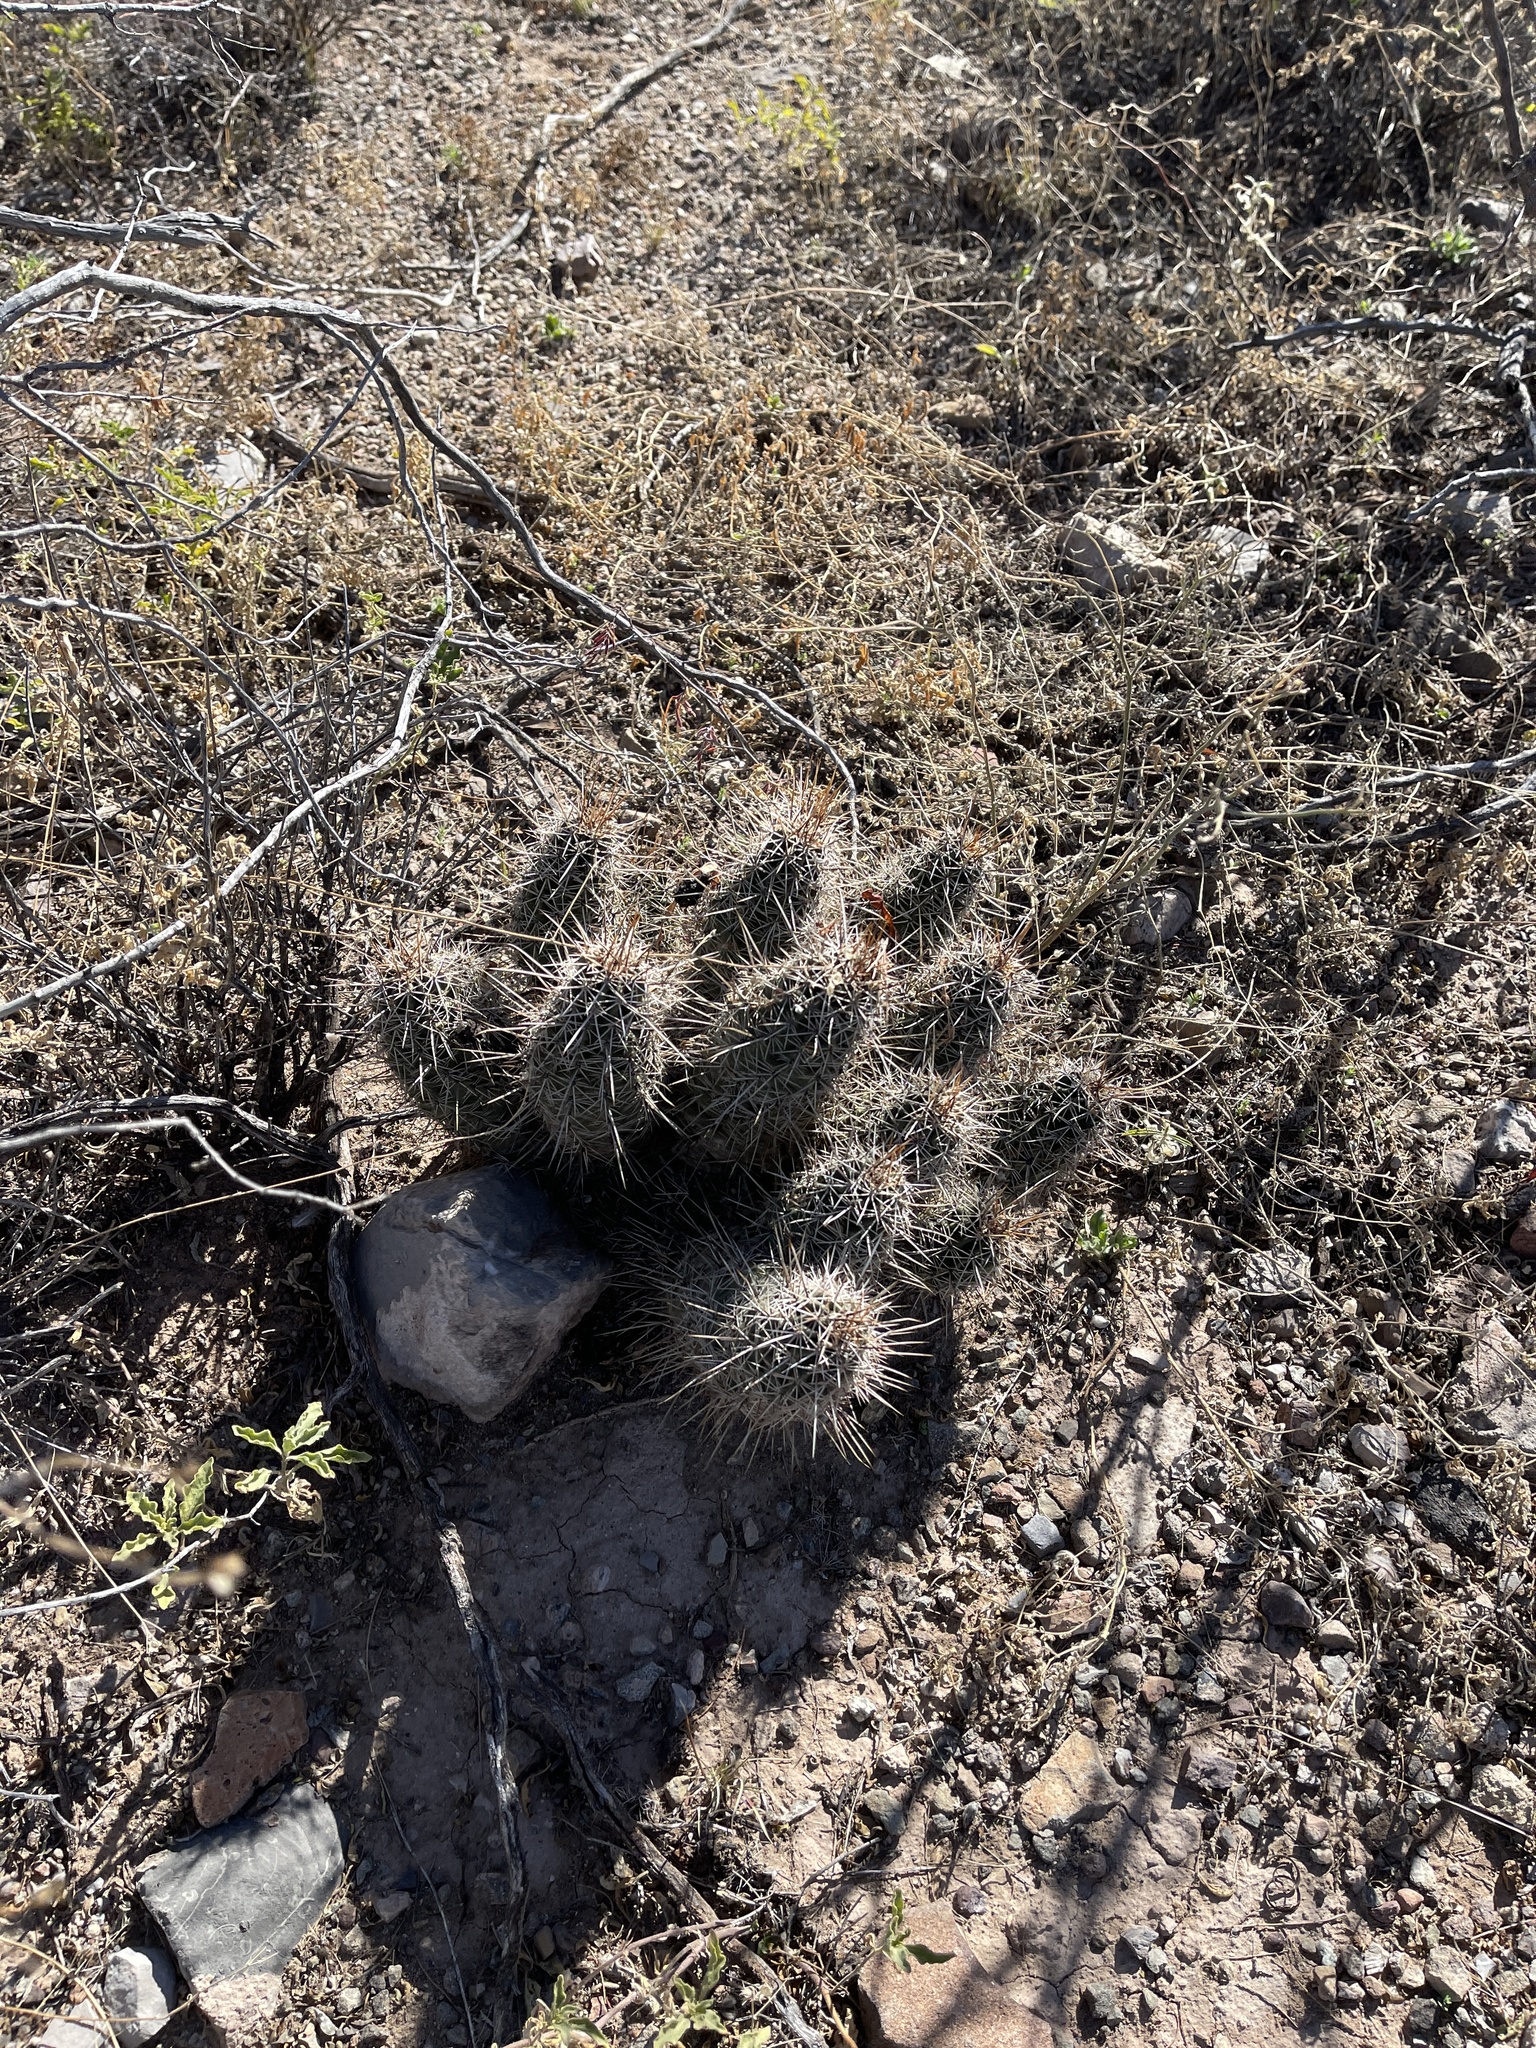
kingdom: Plantae
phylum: Tracheophyta
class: Magnoliopsida
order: Caryophyllales
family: Cactaceae
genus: Echinocereus
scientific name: Echinocereus fasciculatus
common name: Bundle hedgehog
